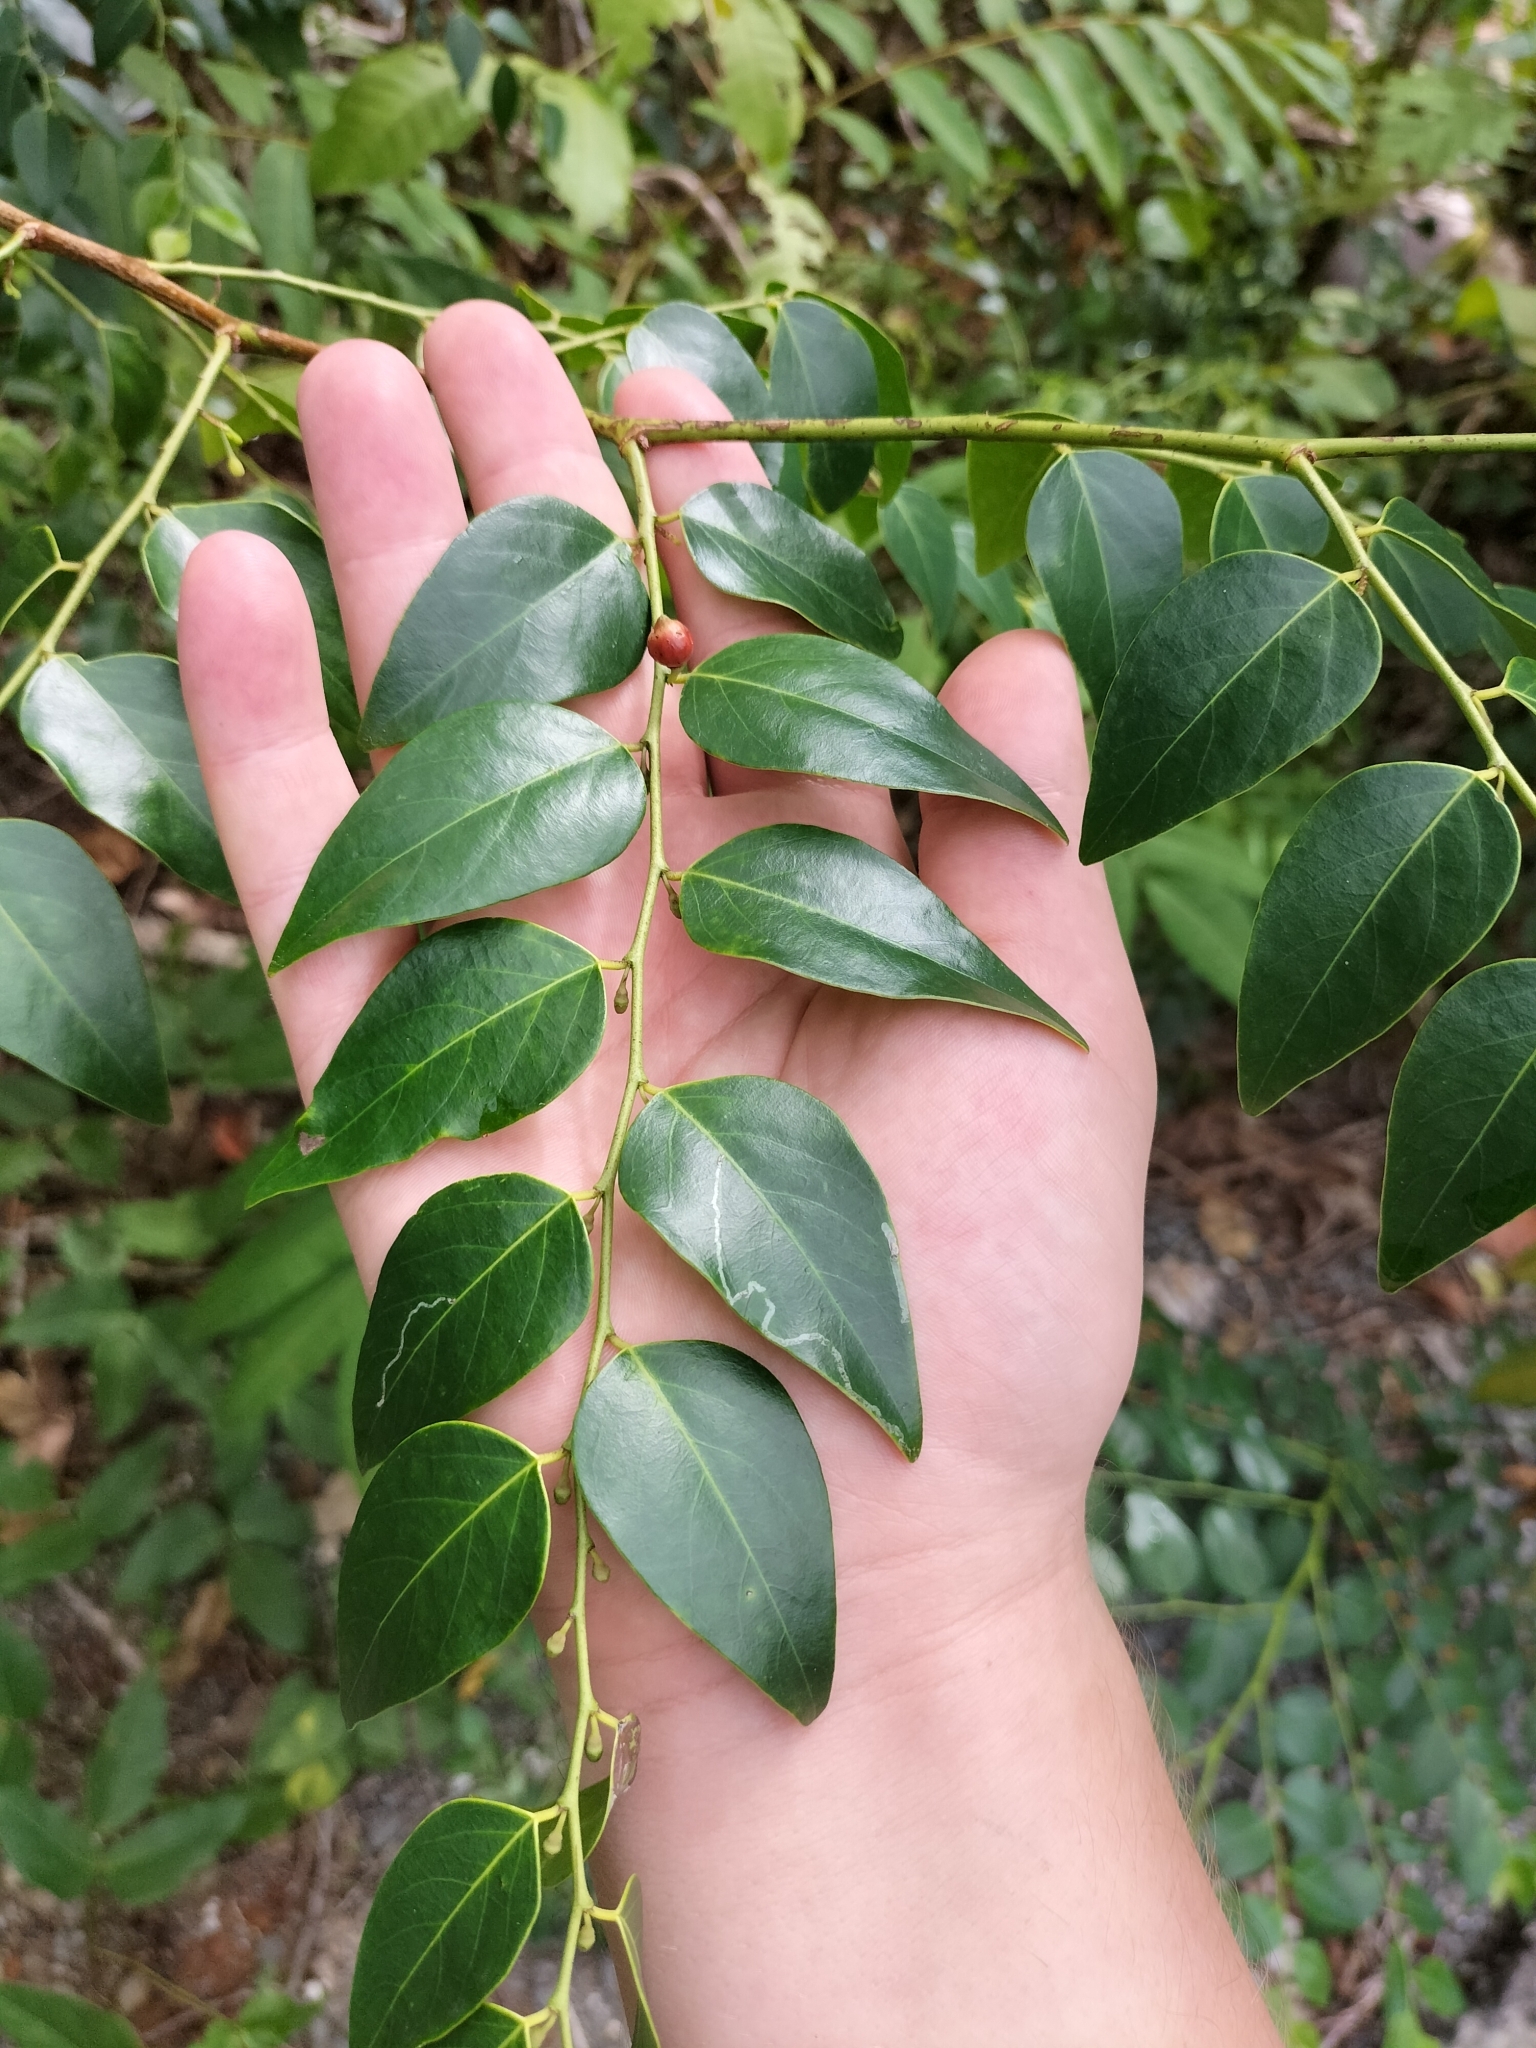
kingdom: Plantae
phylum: Tracheophyta
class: Magnoliopsida
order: Malpighiales
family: Phyllanthaceae
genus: Breynia
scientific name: Breynia cernua
